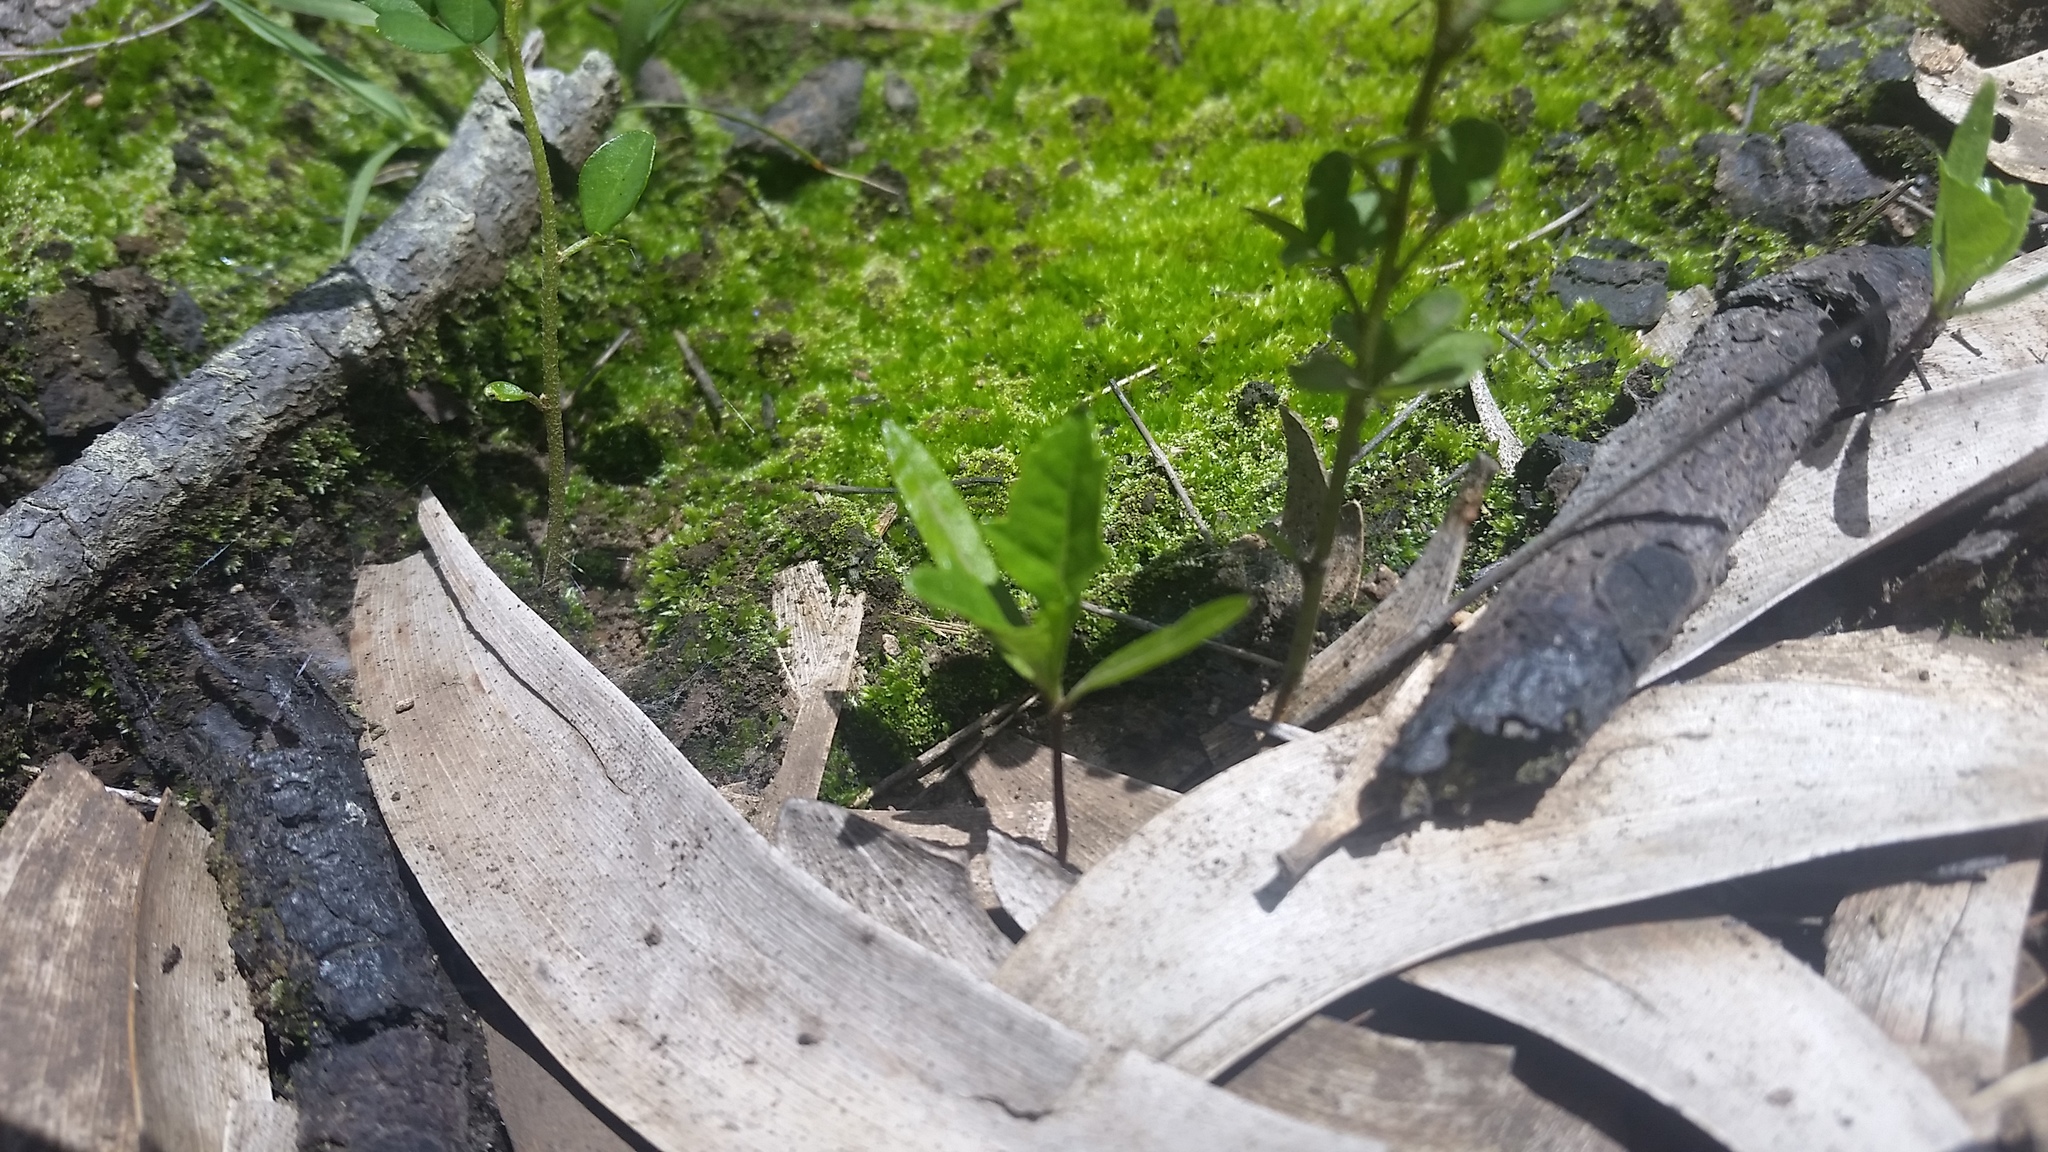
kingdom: Plantae
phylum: Tracheophyta
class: Magnoliopsida
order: Sapindales
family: Sapindaceae
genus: Dodonaea
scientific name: Dodonaea viscosa
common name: Hopbush
